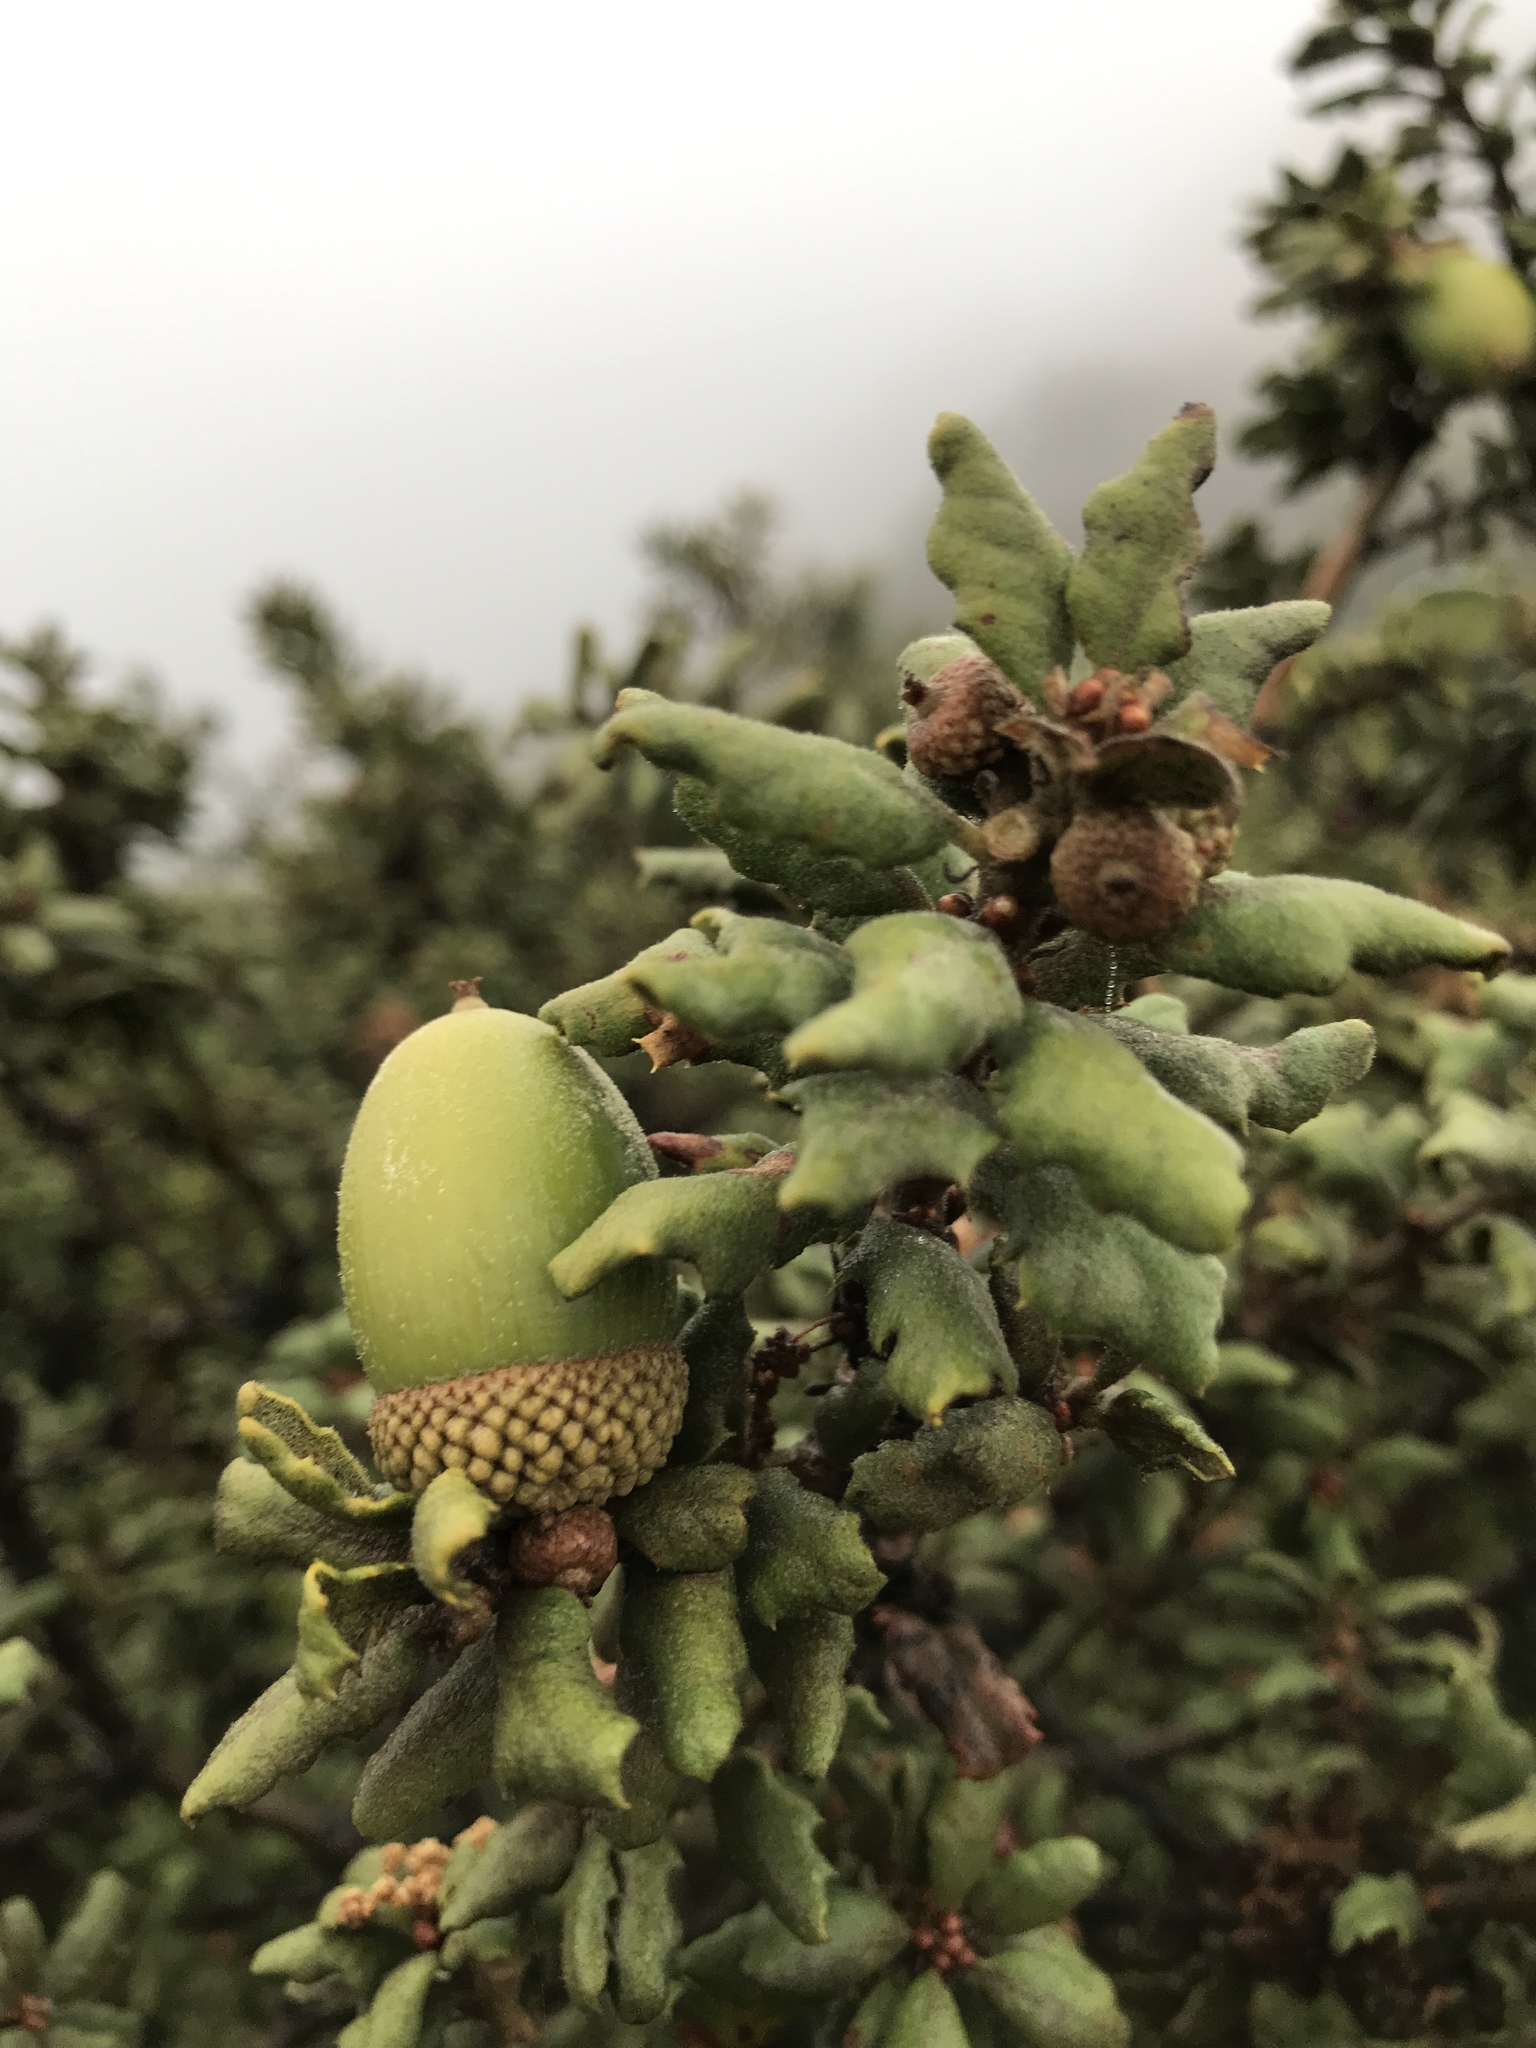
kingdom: Plantae
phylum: Tracheophyta
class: Magnoliopsida
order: Fagales
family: Fagaceae
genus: Quercus
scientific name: Quercus durata
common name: Leather oak
